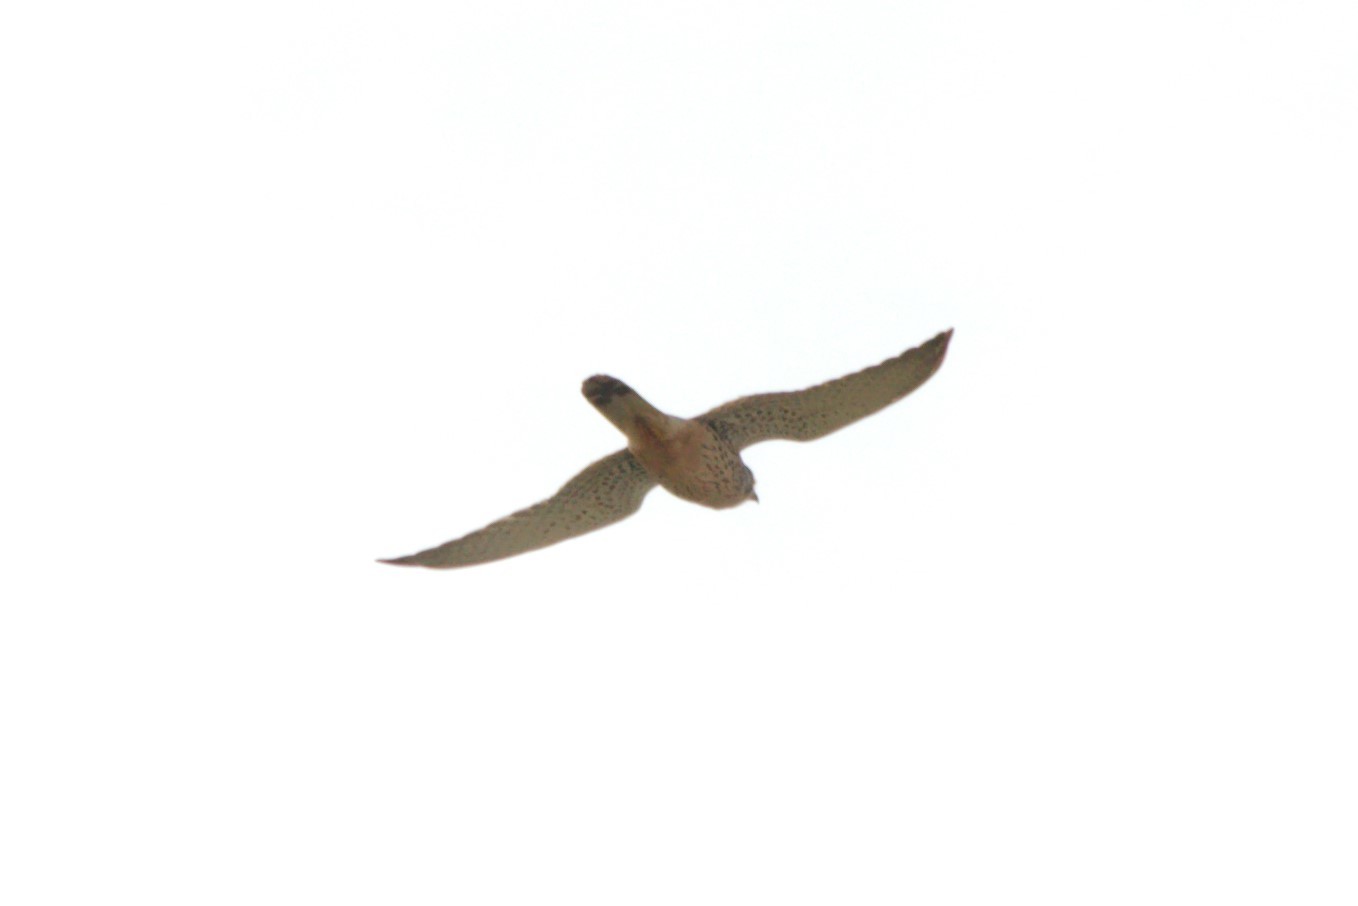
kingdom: Animalia
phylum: Chordata
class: Aves
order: Falconiformes
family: Falconidae
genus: Falco
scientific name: Falco tinnunculus
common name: Common kestrel
